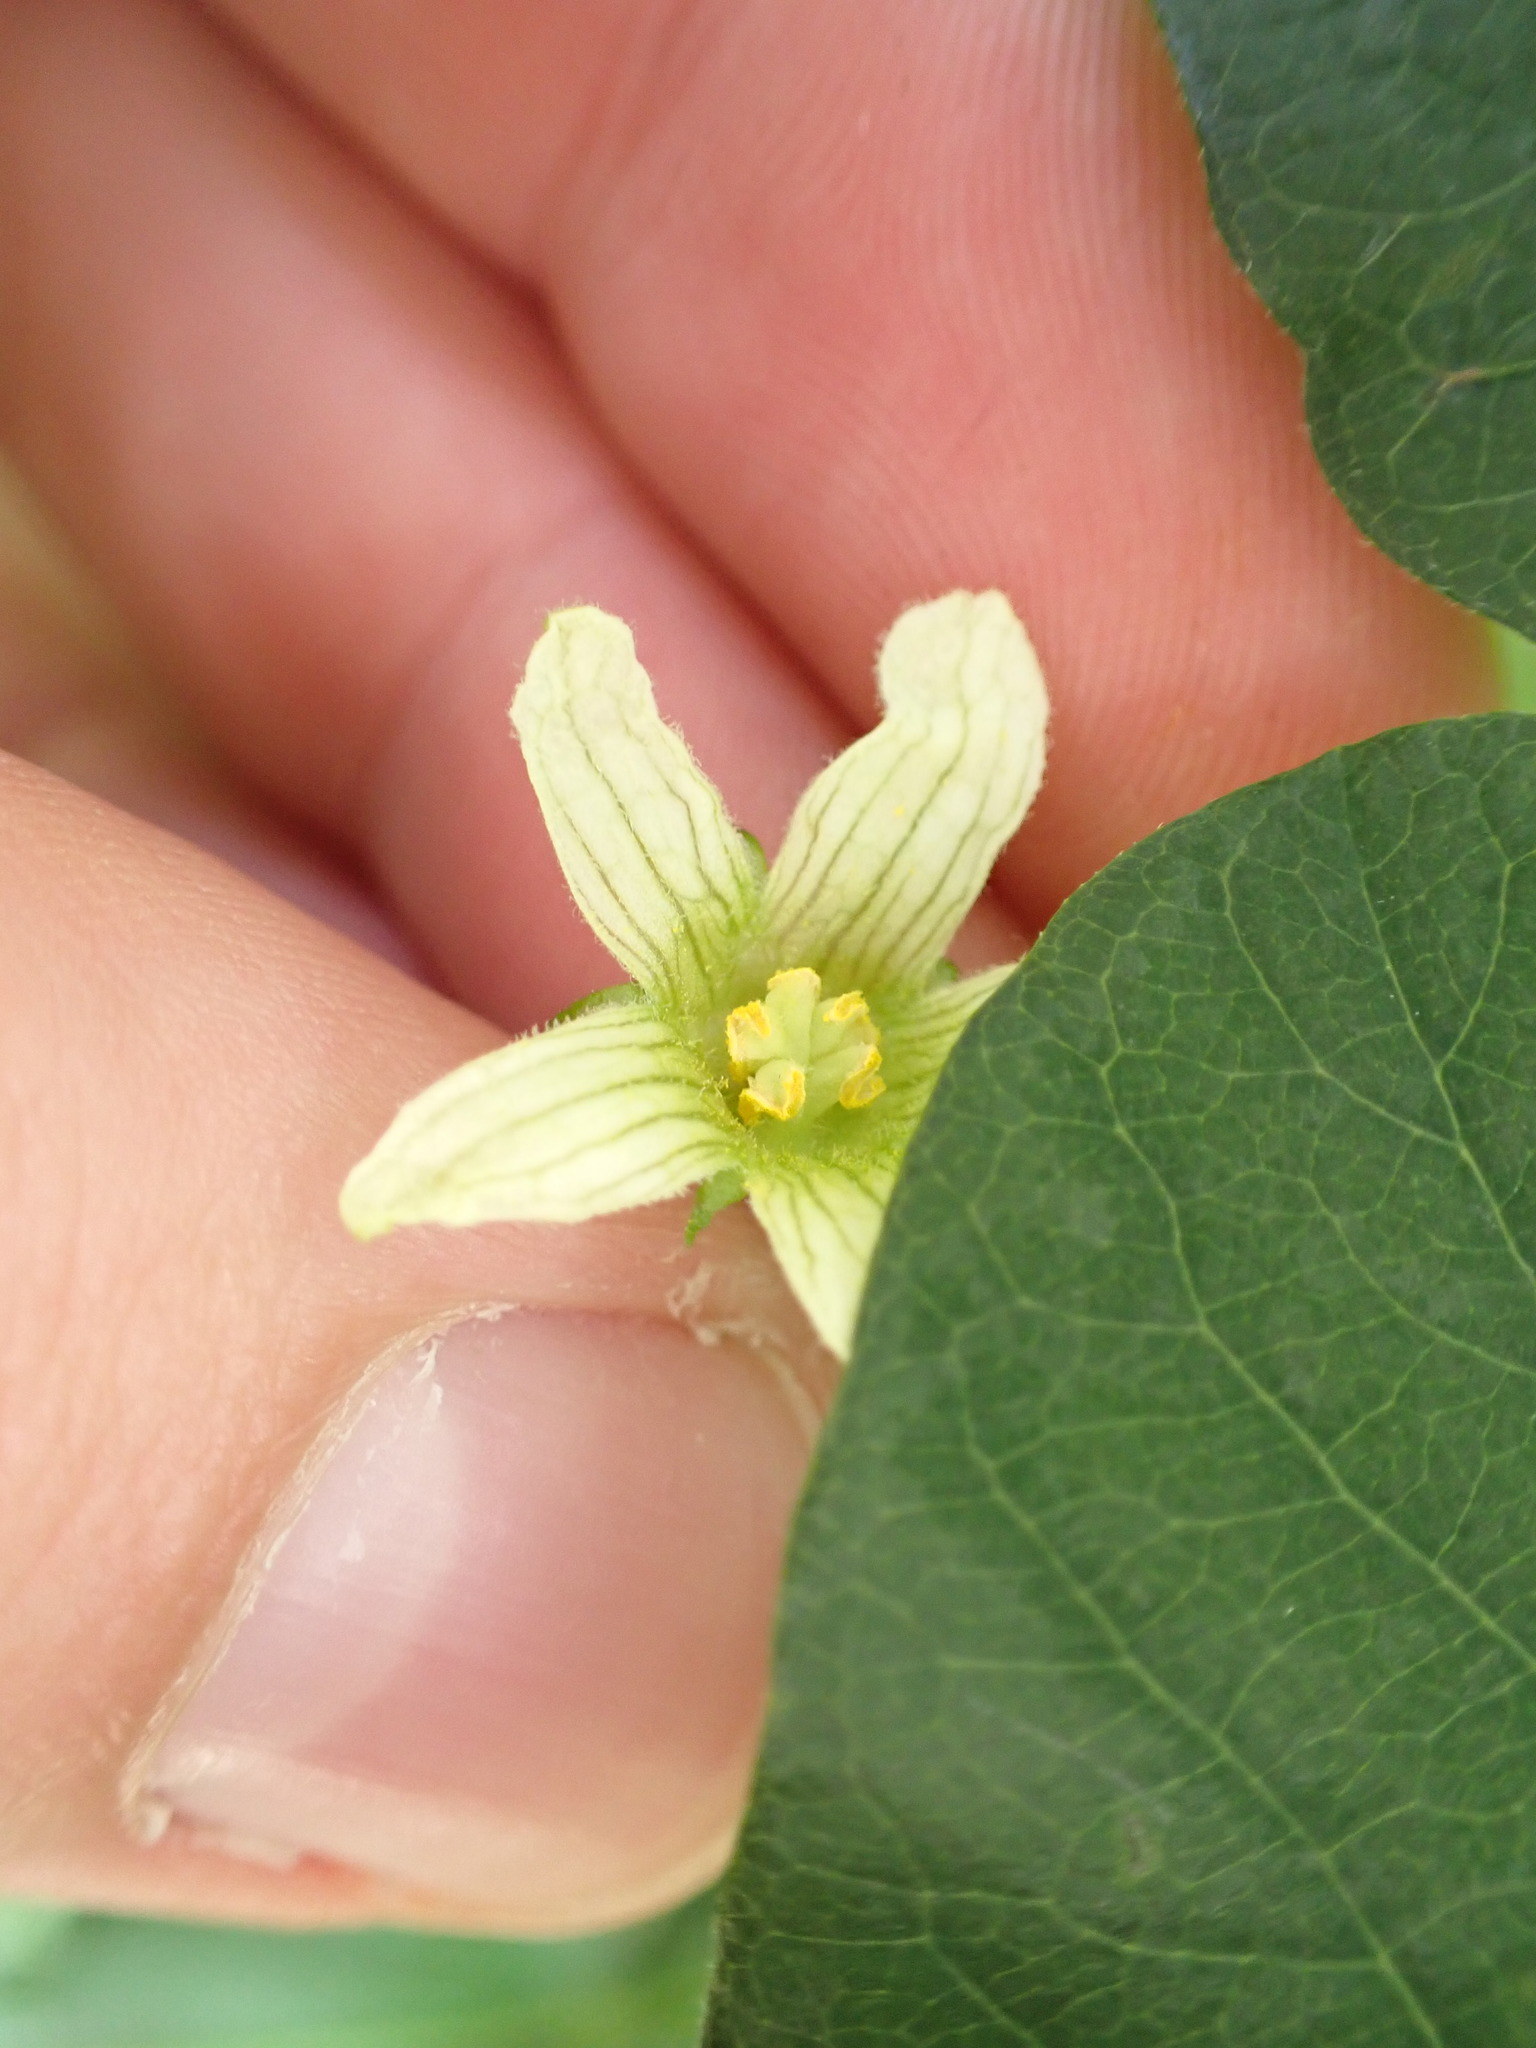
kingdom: Plantae
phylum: Tracheophyta
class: Magnoliopsida
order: Cucurbitales
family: Cucurbitaceae
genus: Bryonia
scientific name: Bryonia cretica
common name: Cretan bryony
